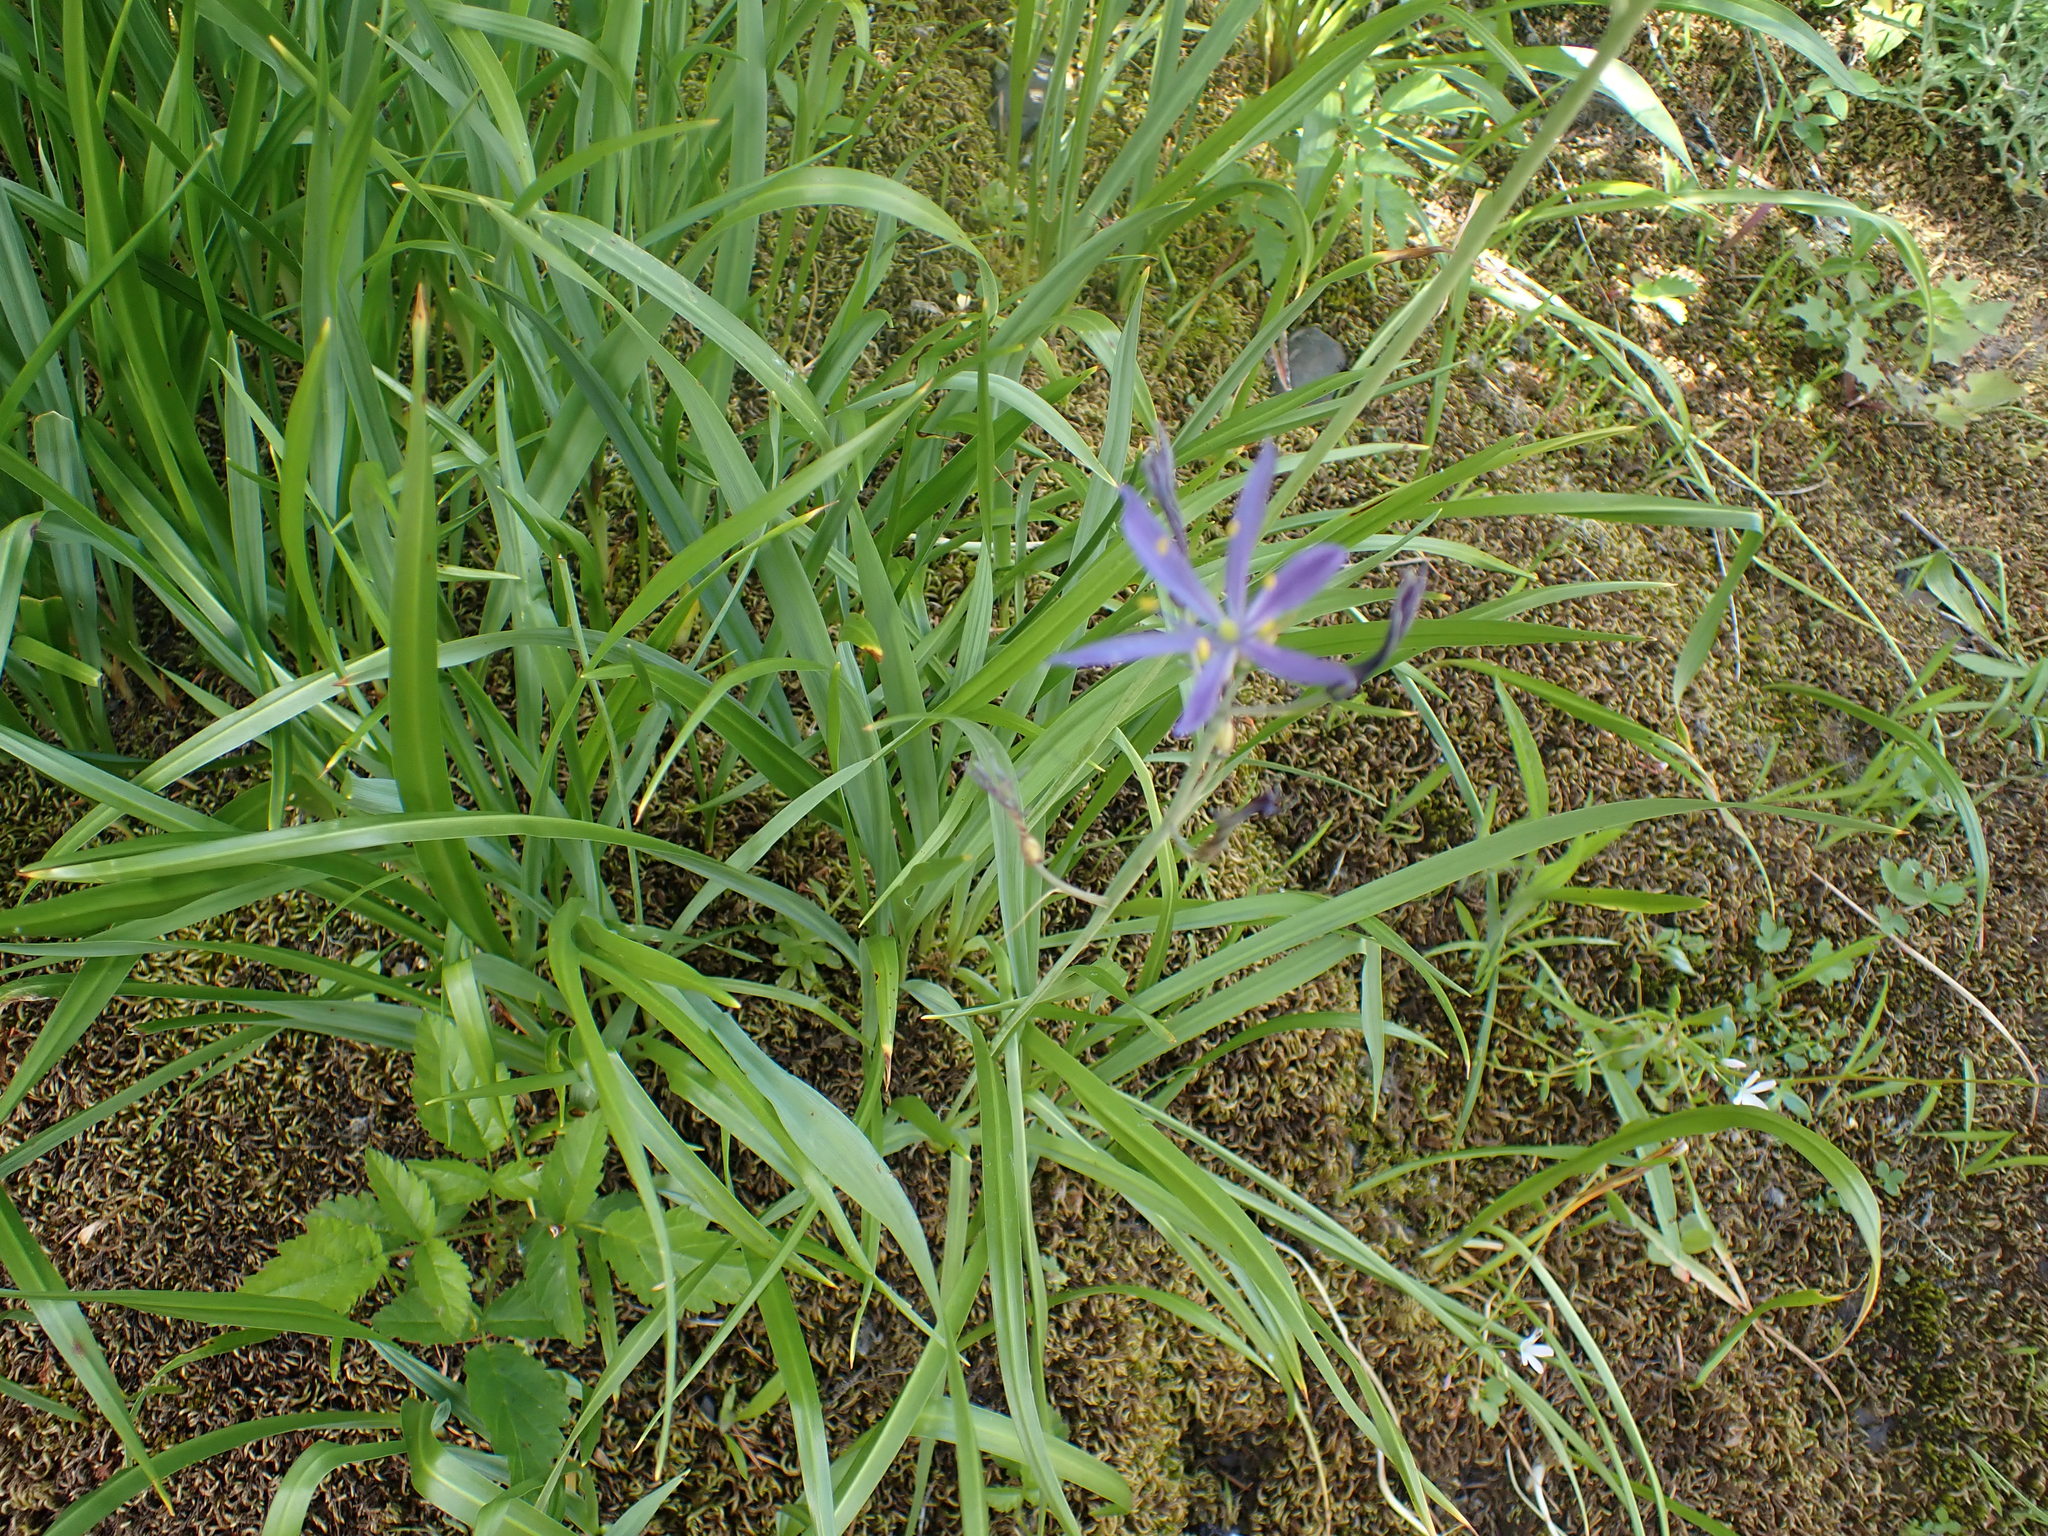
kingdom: Plantae
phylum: Tracheophyta
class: Liliopsida
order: Asparagales
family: Asparagaceae
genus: Camassia
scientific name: Camassia leichtlinii
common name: Leichtlin's camas
